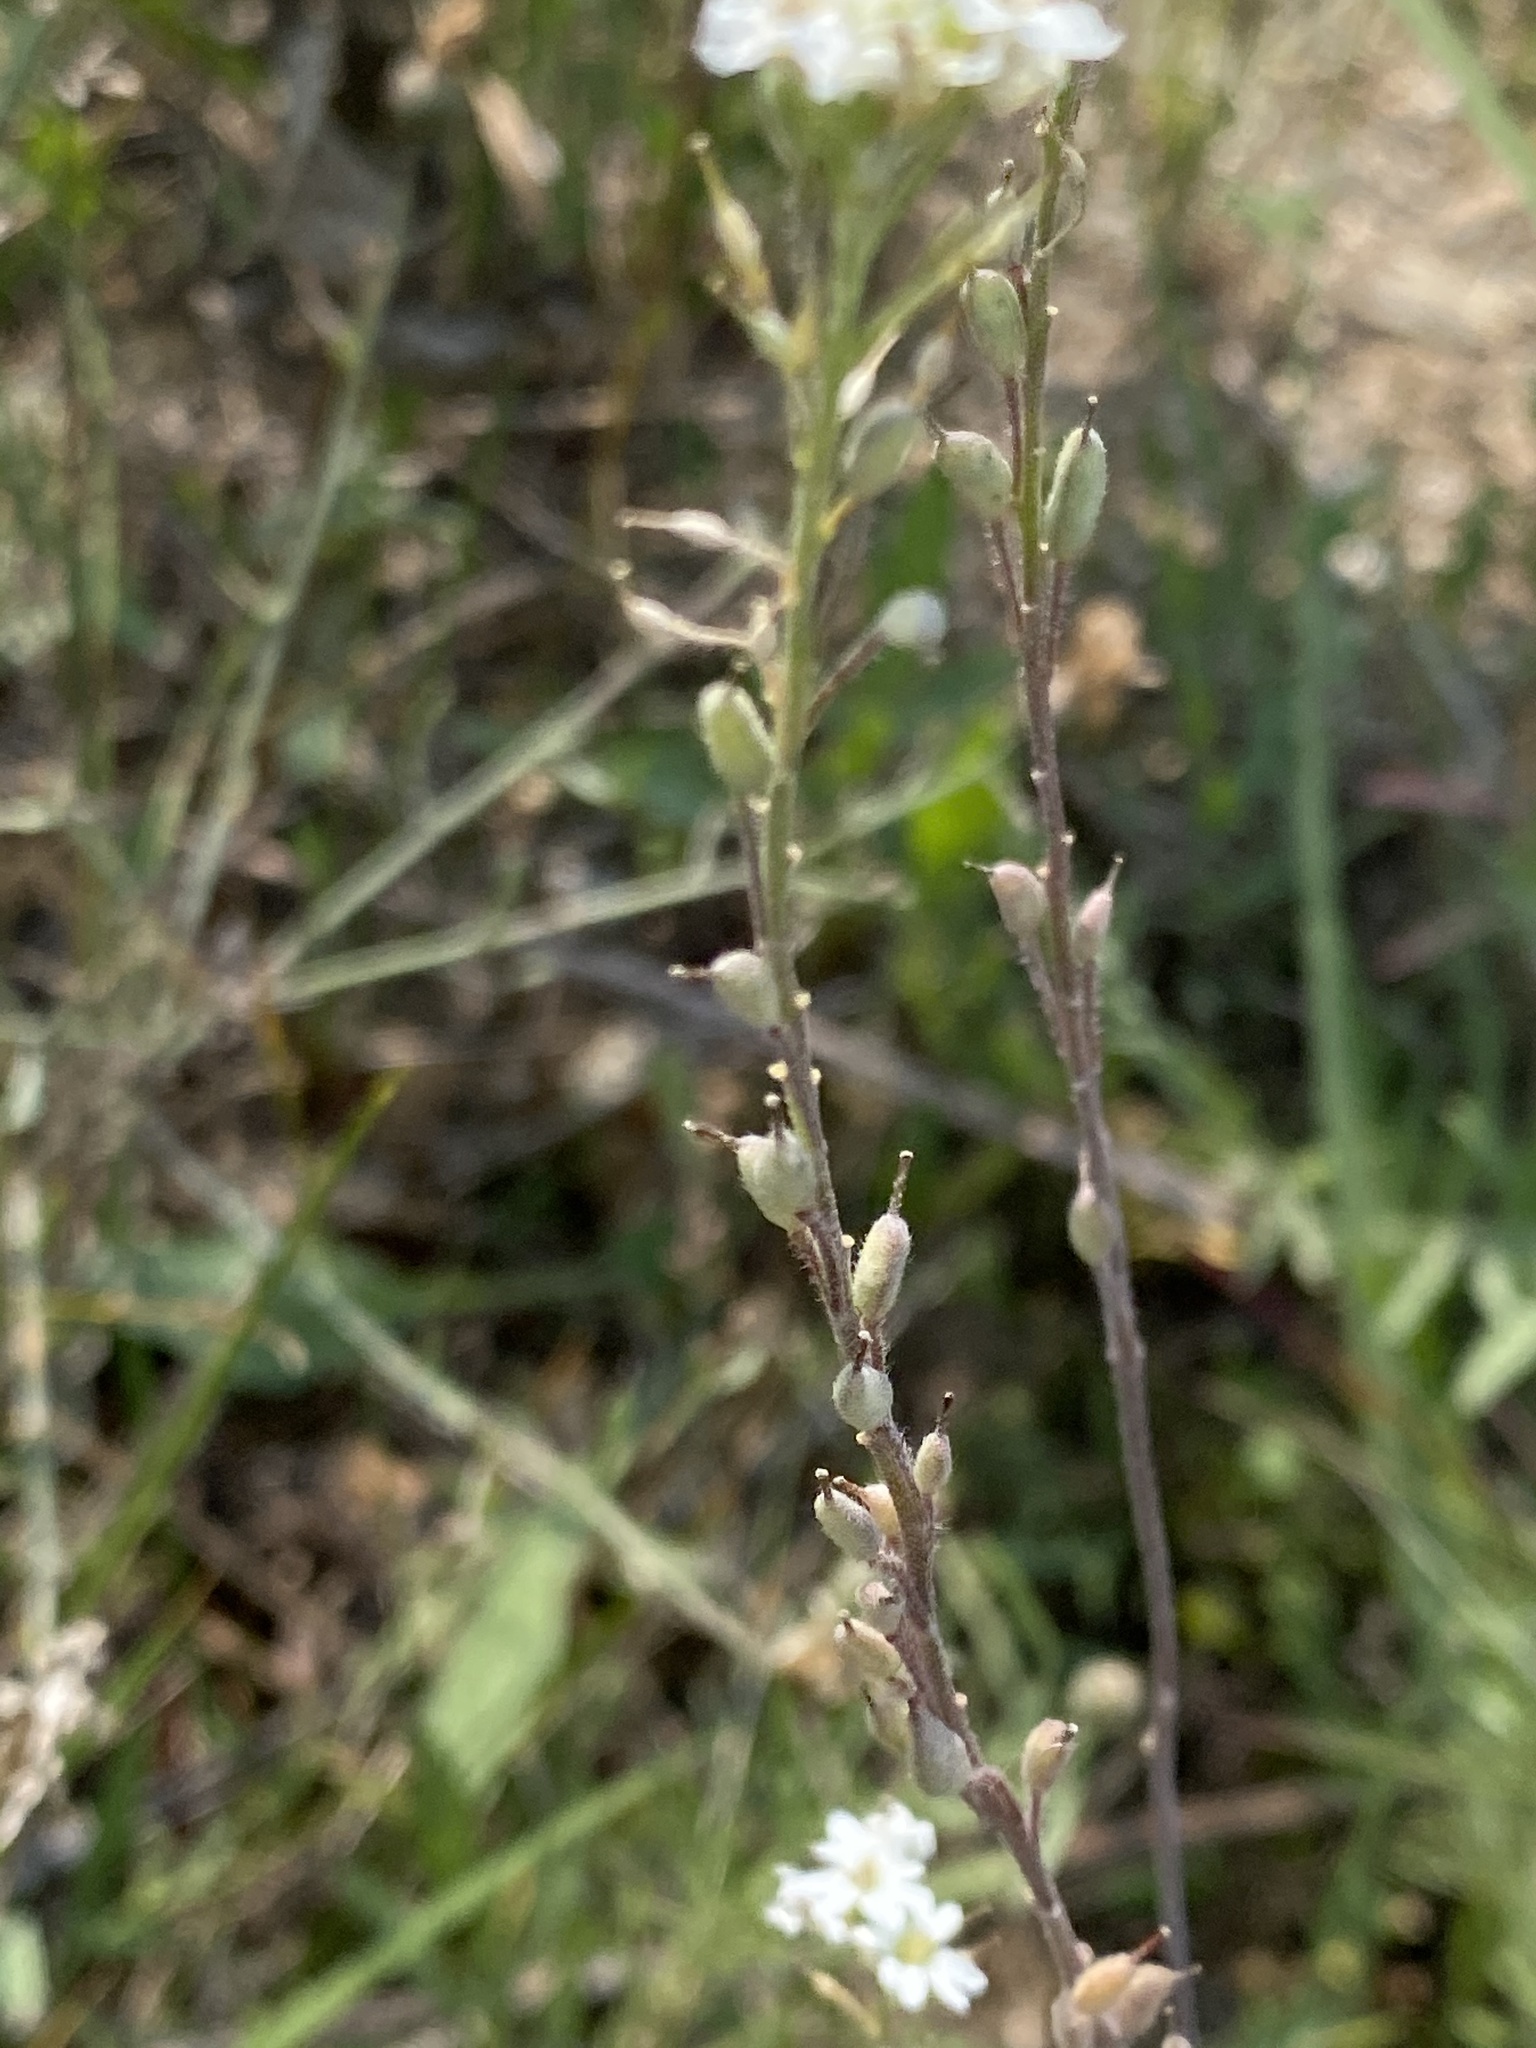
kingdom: Plantae
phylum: Tracheophyta
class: Magnoliopsida
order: Brassicales
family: Brassicaceae
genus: Berteroa
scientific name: Berteroa incana
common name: Hoary alison
